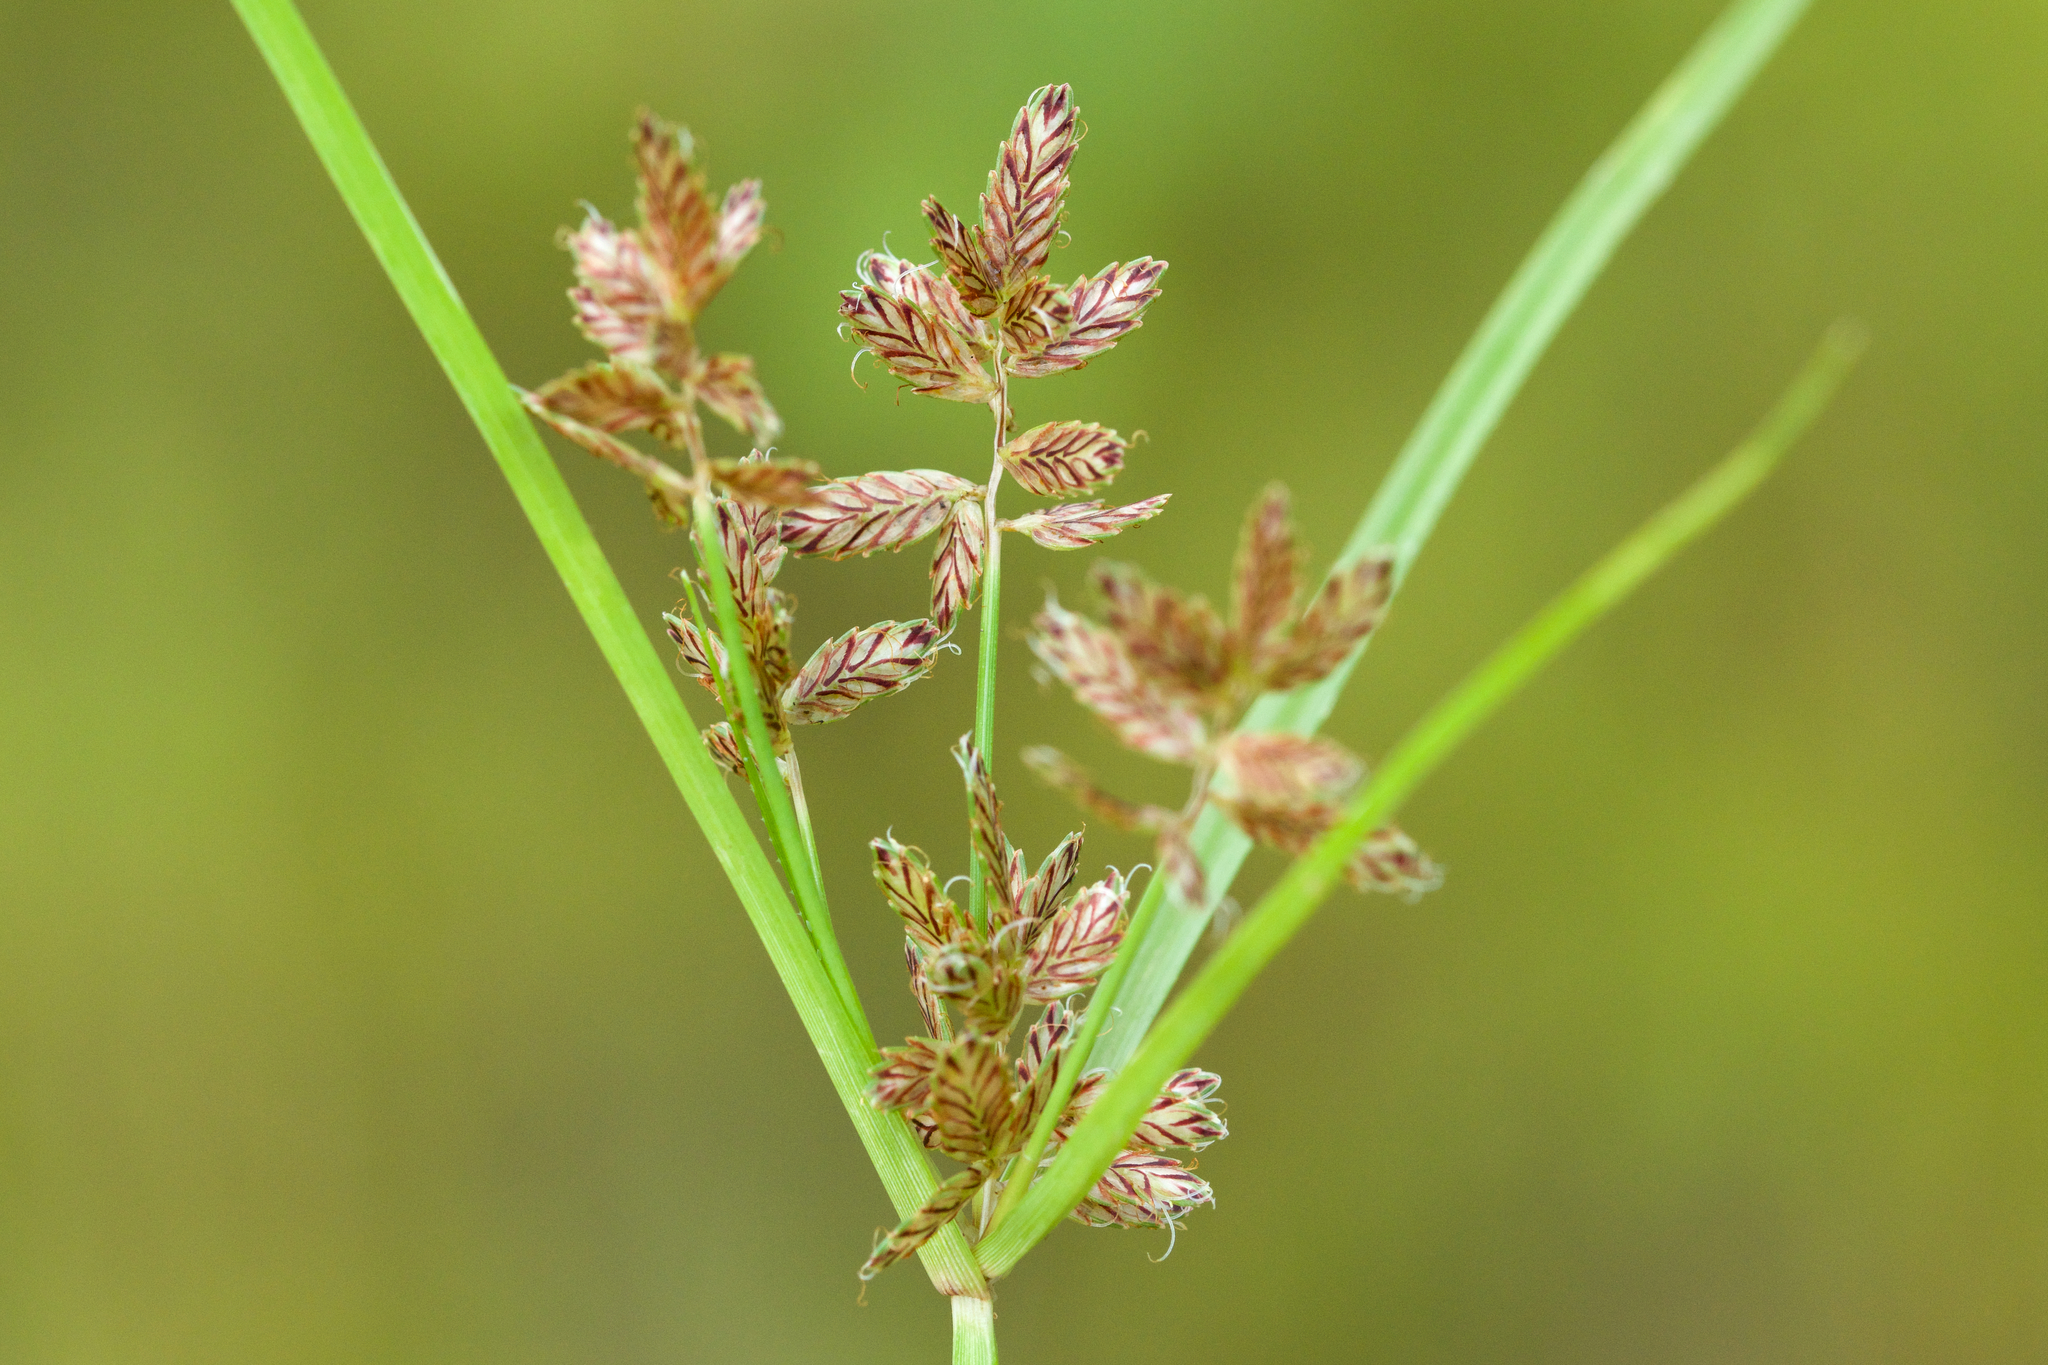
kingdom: Plantae
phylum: Tracheophyta
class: Liliopsida
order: Poales
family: Cyperaceae
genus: Cyperus
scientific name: Cyperus diandrus
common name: Low cyperus
